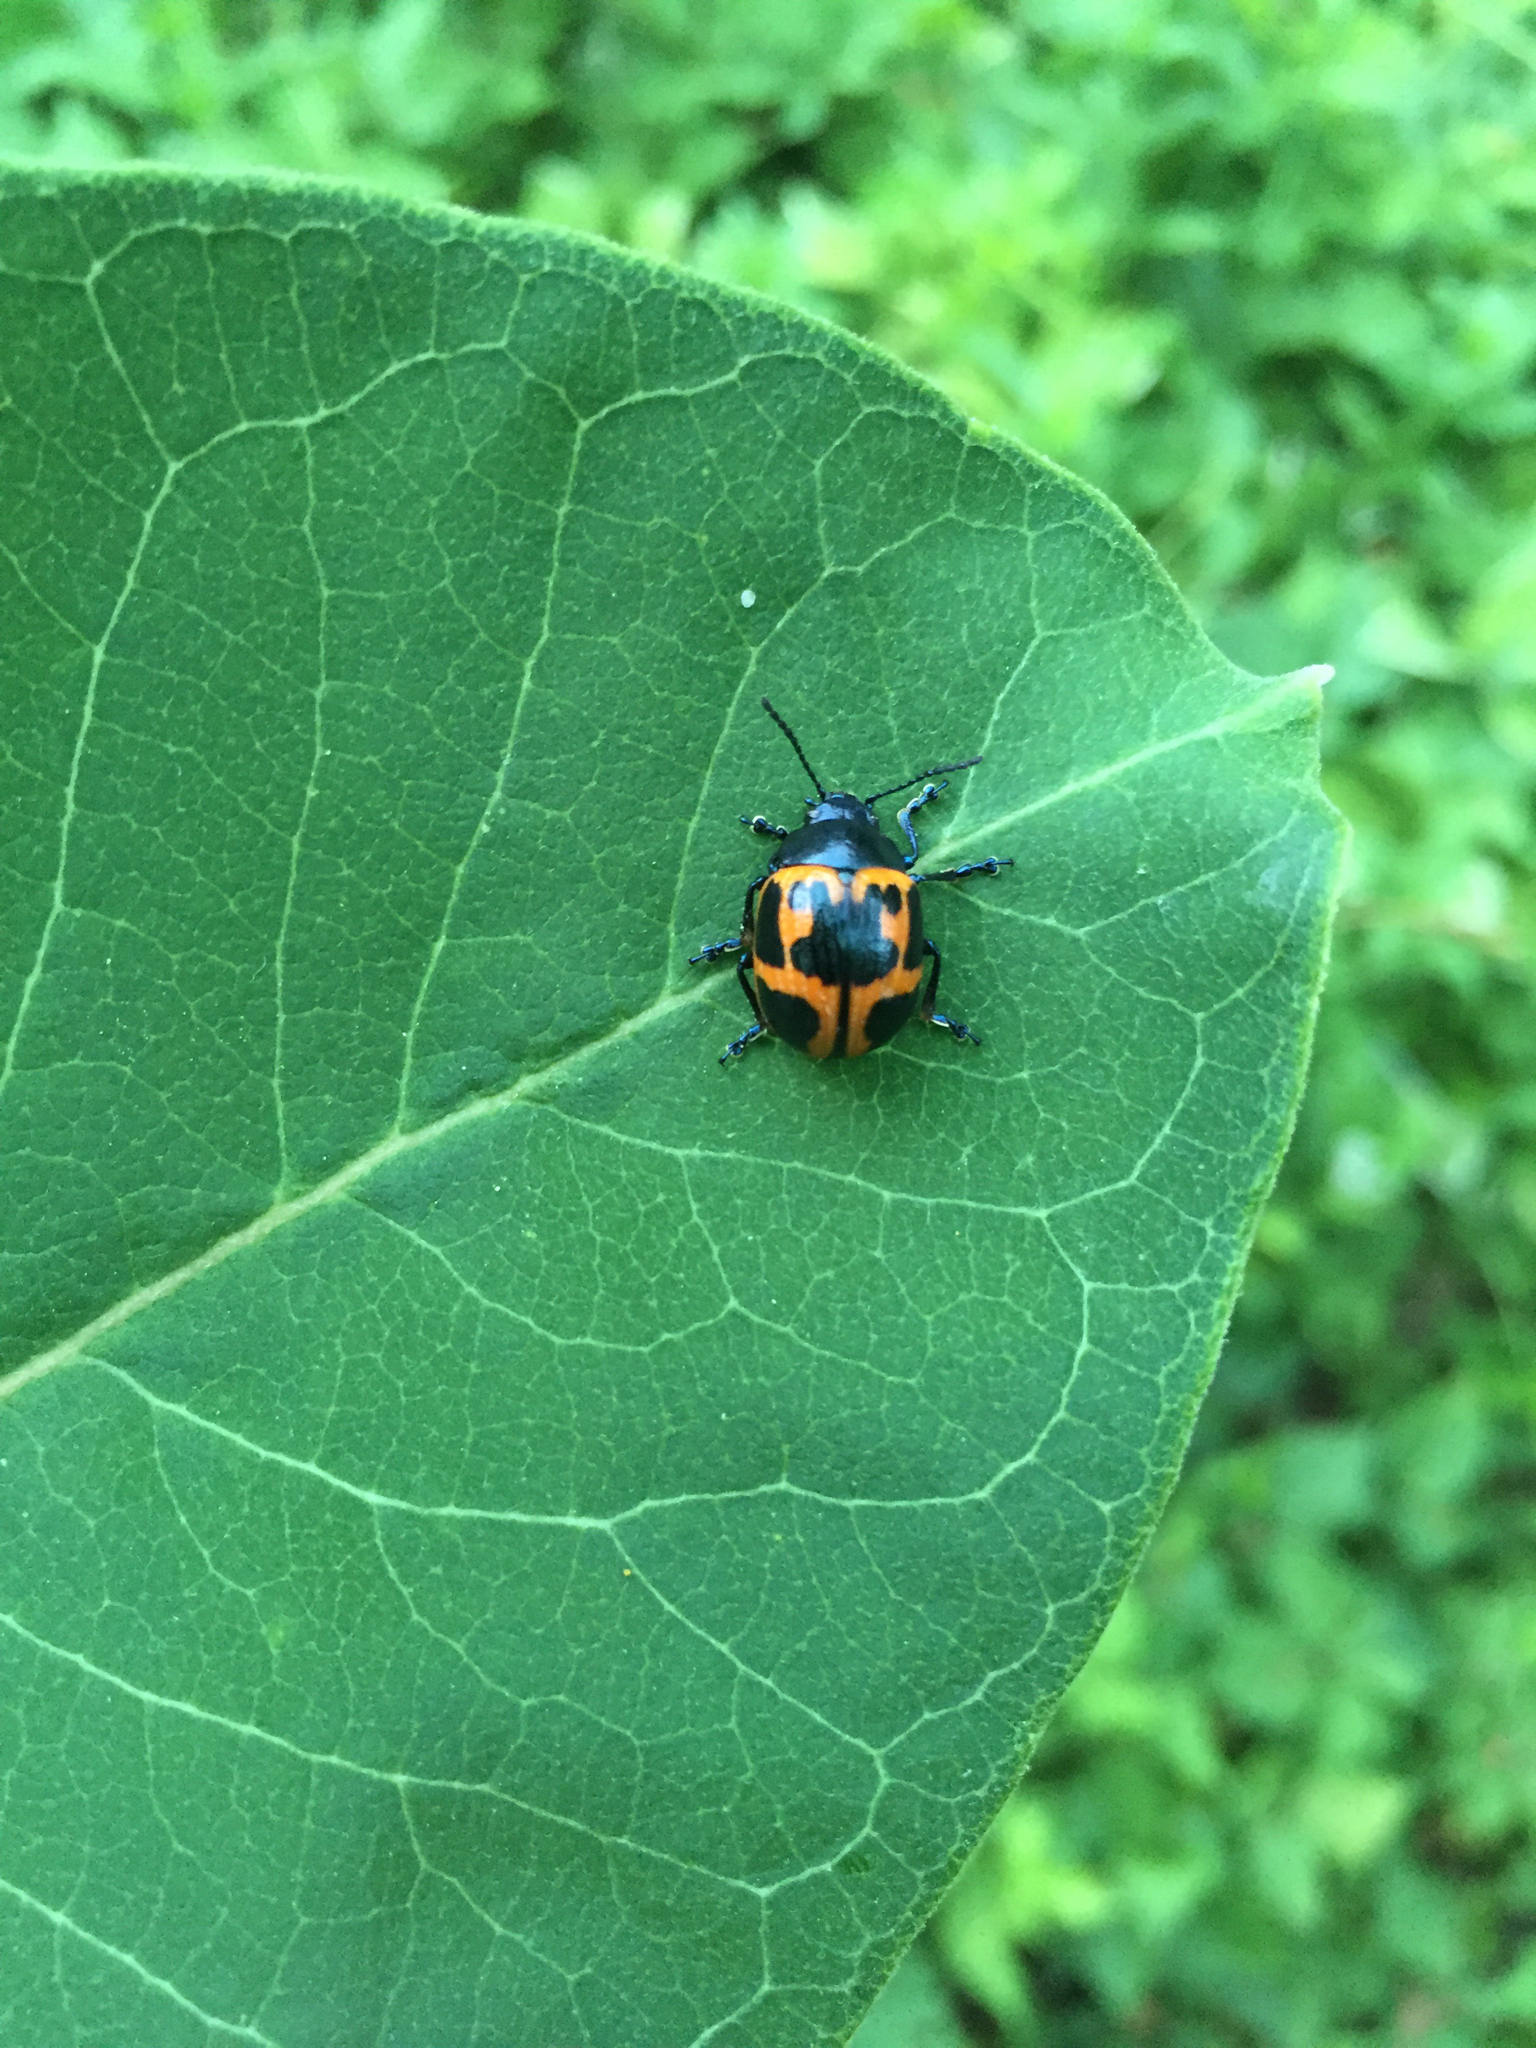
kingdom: Animalia
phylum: Arthropoda
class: Insecta
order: Coleoptera
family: Chrysomelidae
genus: Labidomera
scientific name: Labidomera clivicollis
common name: Swamp milkweed leaf beetle
